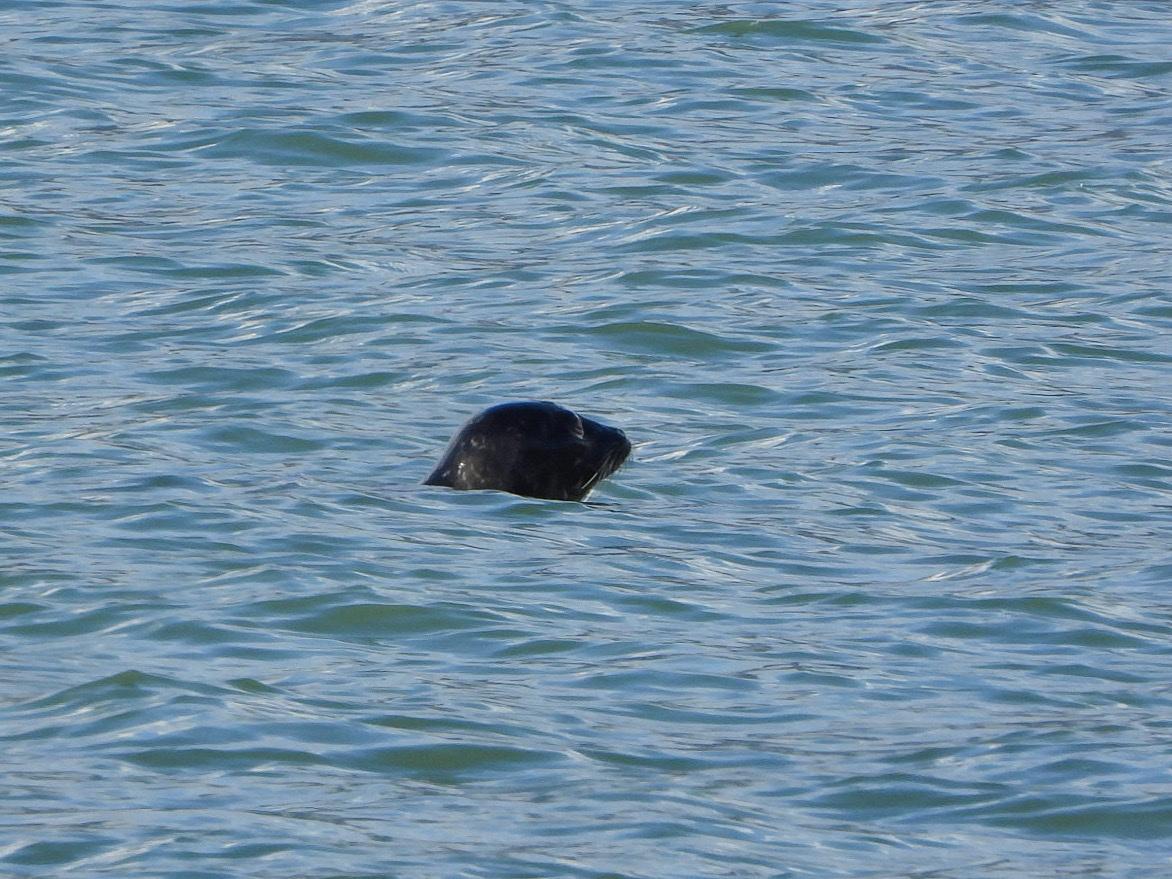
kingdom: Animalia
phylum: Chordata
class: Mammalia
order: Carnivora
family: Phocidae
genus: Phoca
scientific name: Phoca vitulina
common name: Harbor seal
